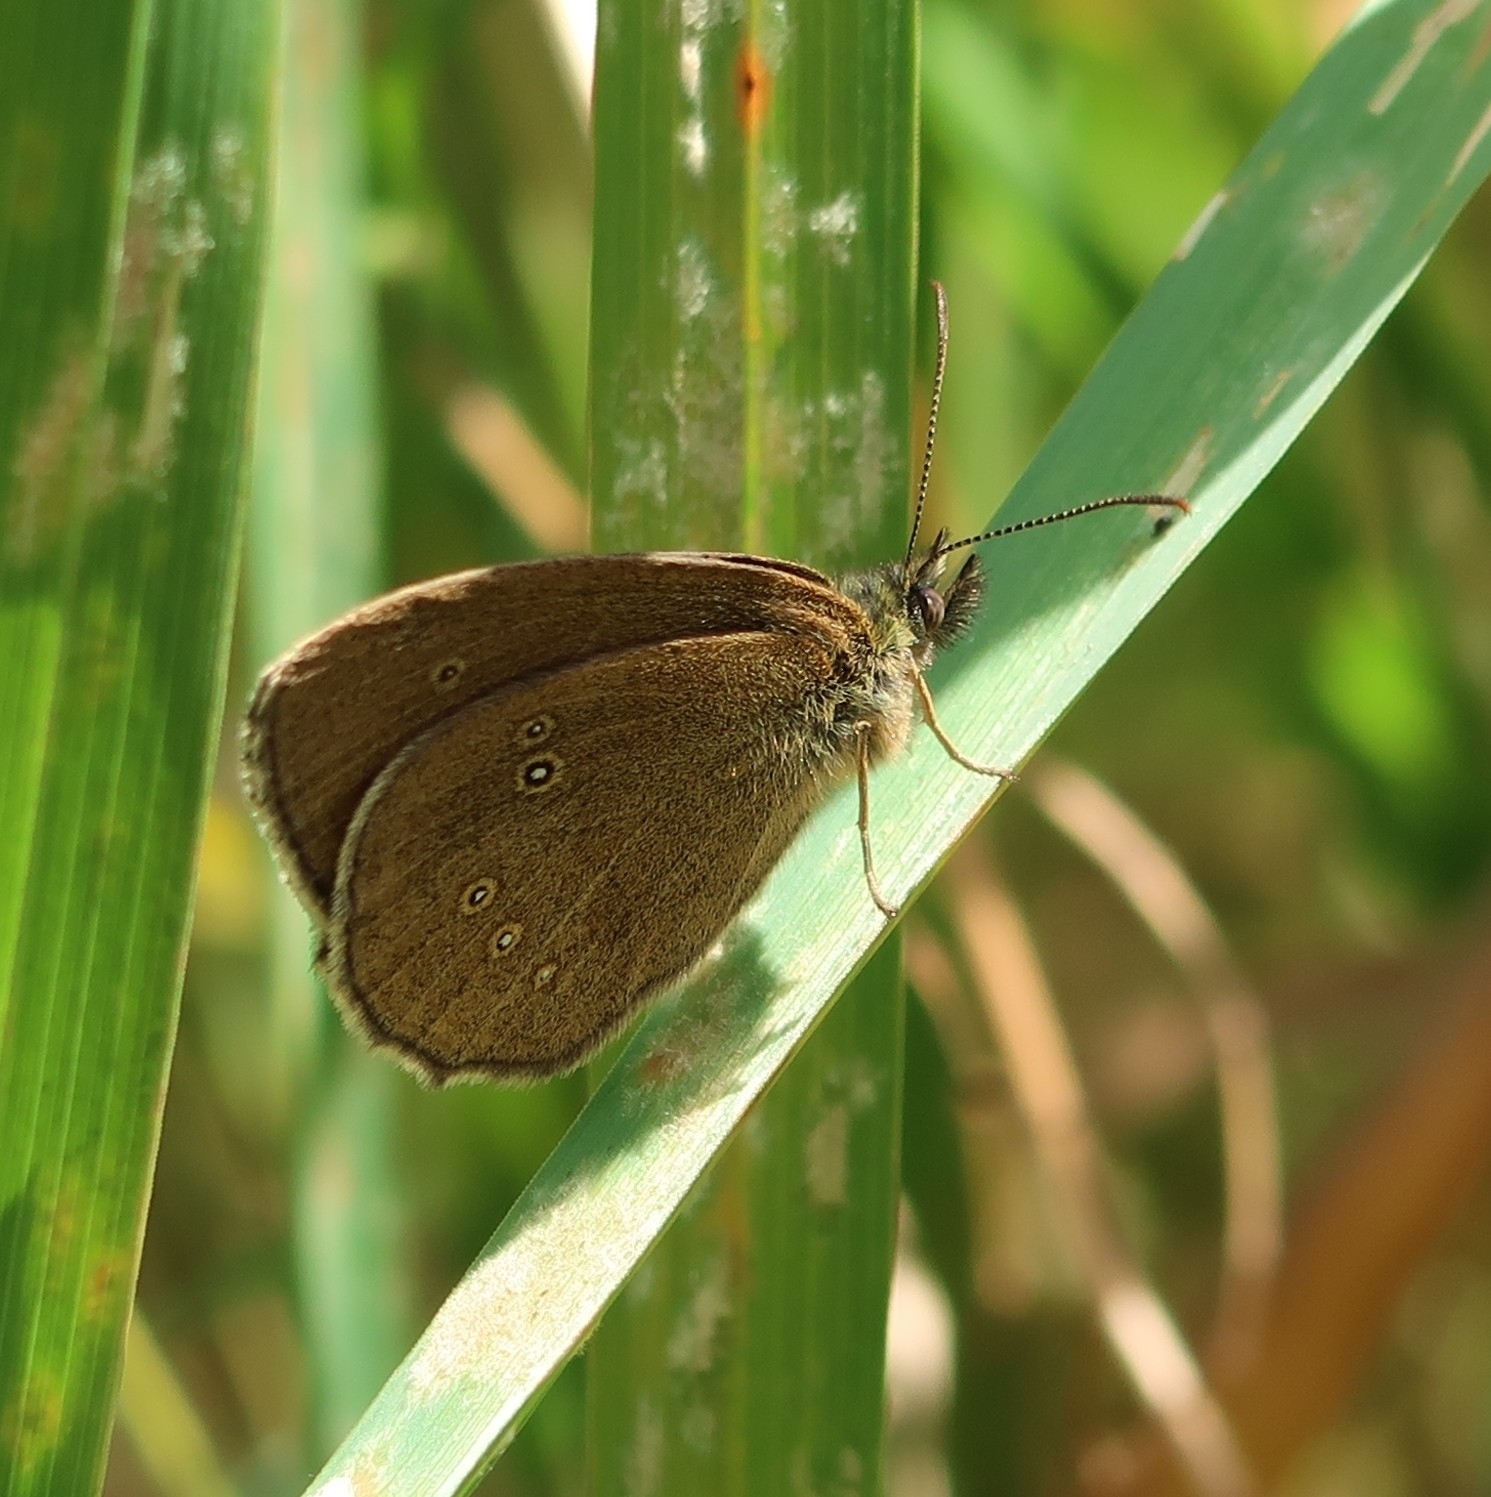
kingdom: Animalia
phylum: Arthropoda
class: Insecta
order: Lepidoptera
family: Nymphalidae
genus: Aphantopus
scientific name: Aphantopus hyperantus
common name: Ringlet
